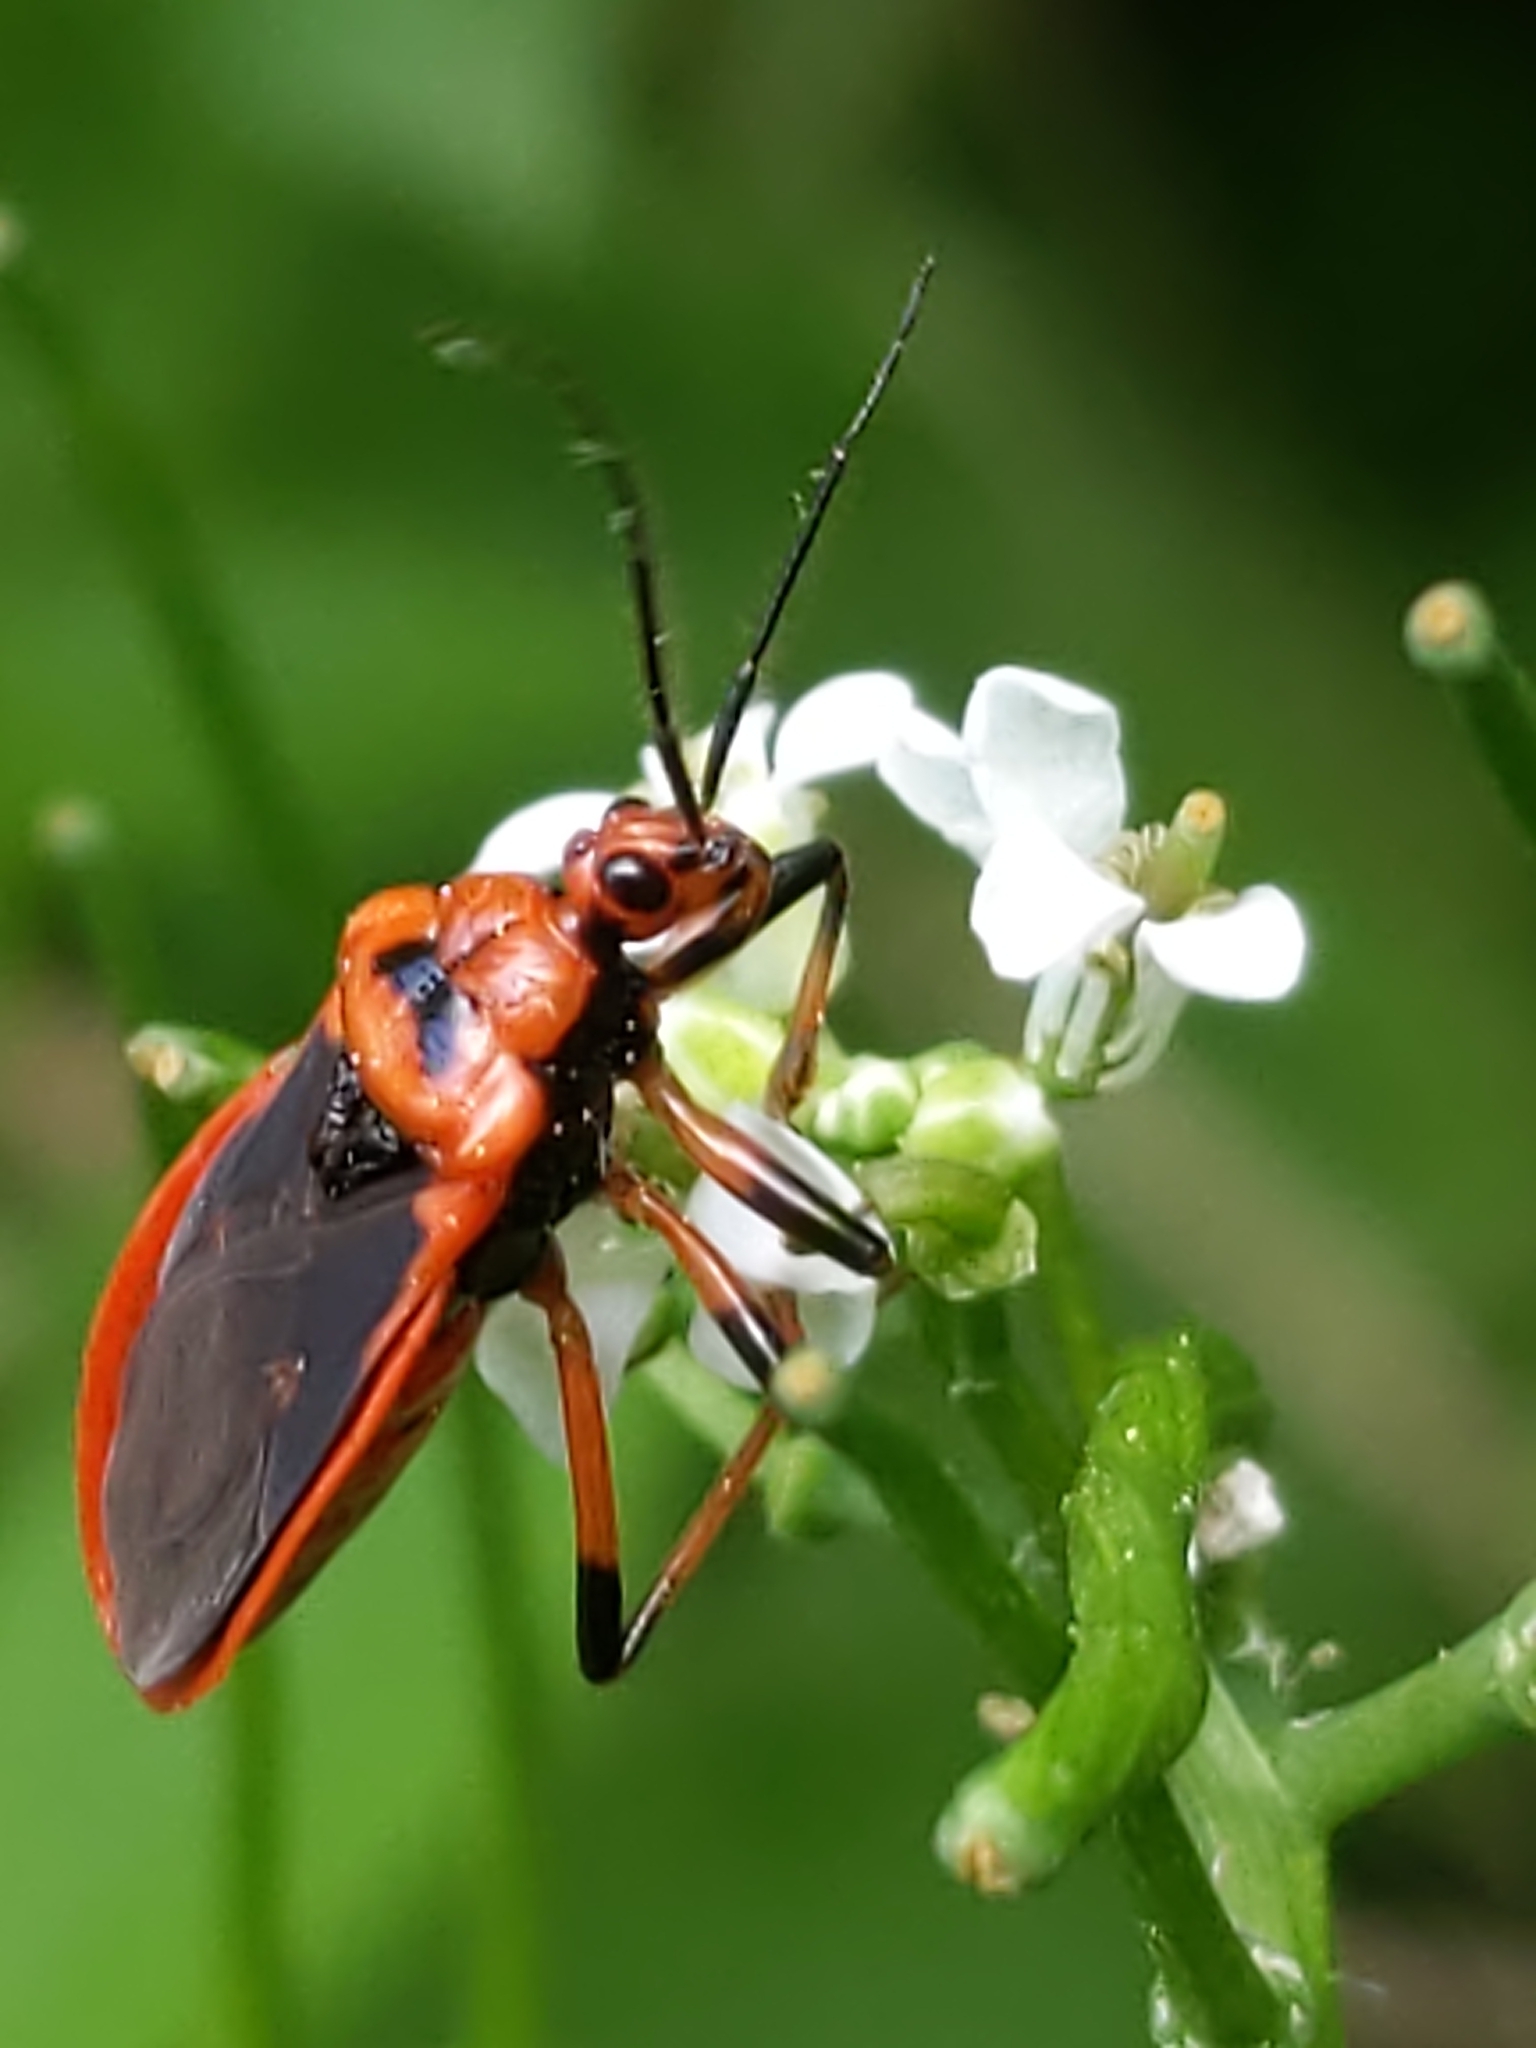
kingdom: Animalia
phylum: Arthropoda
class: Insecta
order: Hemiptera
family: Reduviidae
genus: Rhiginia
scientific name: Rhiginia cruciata
